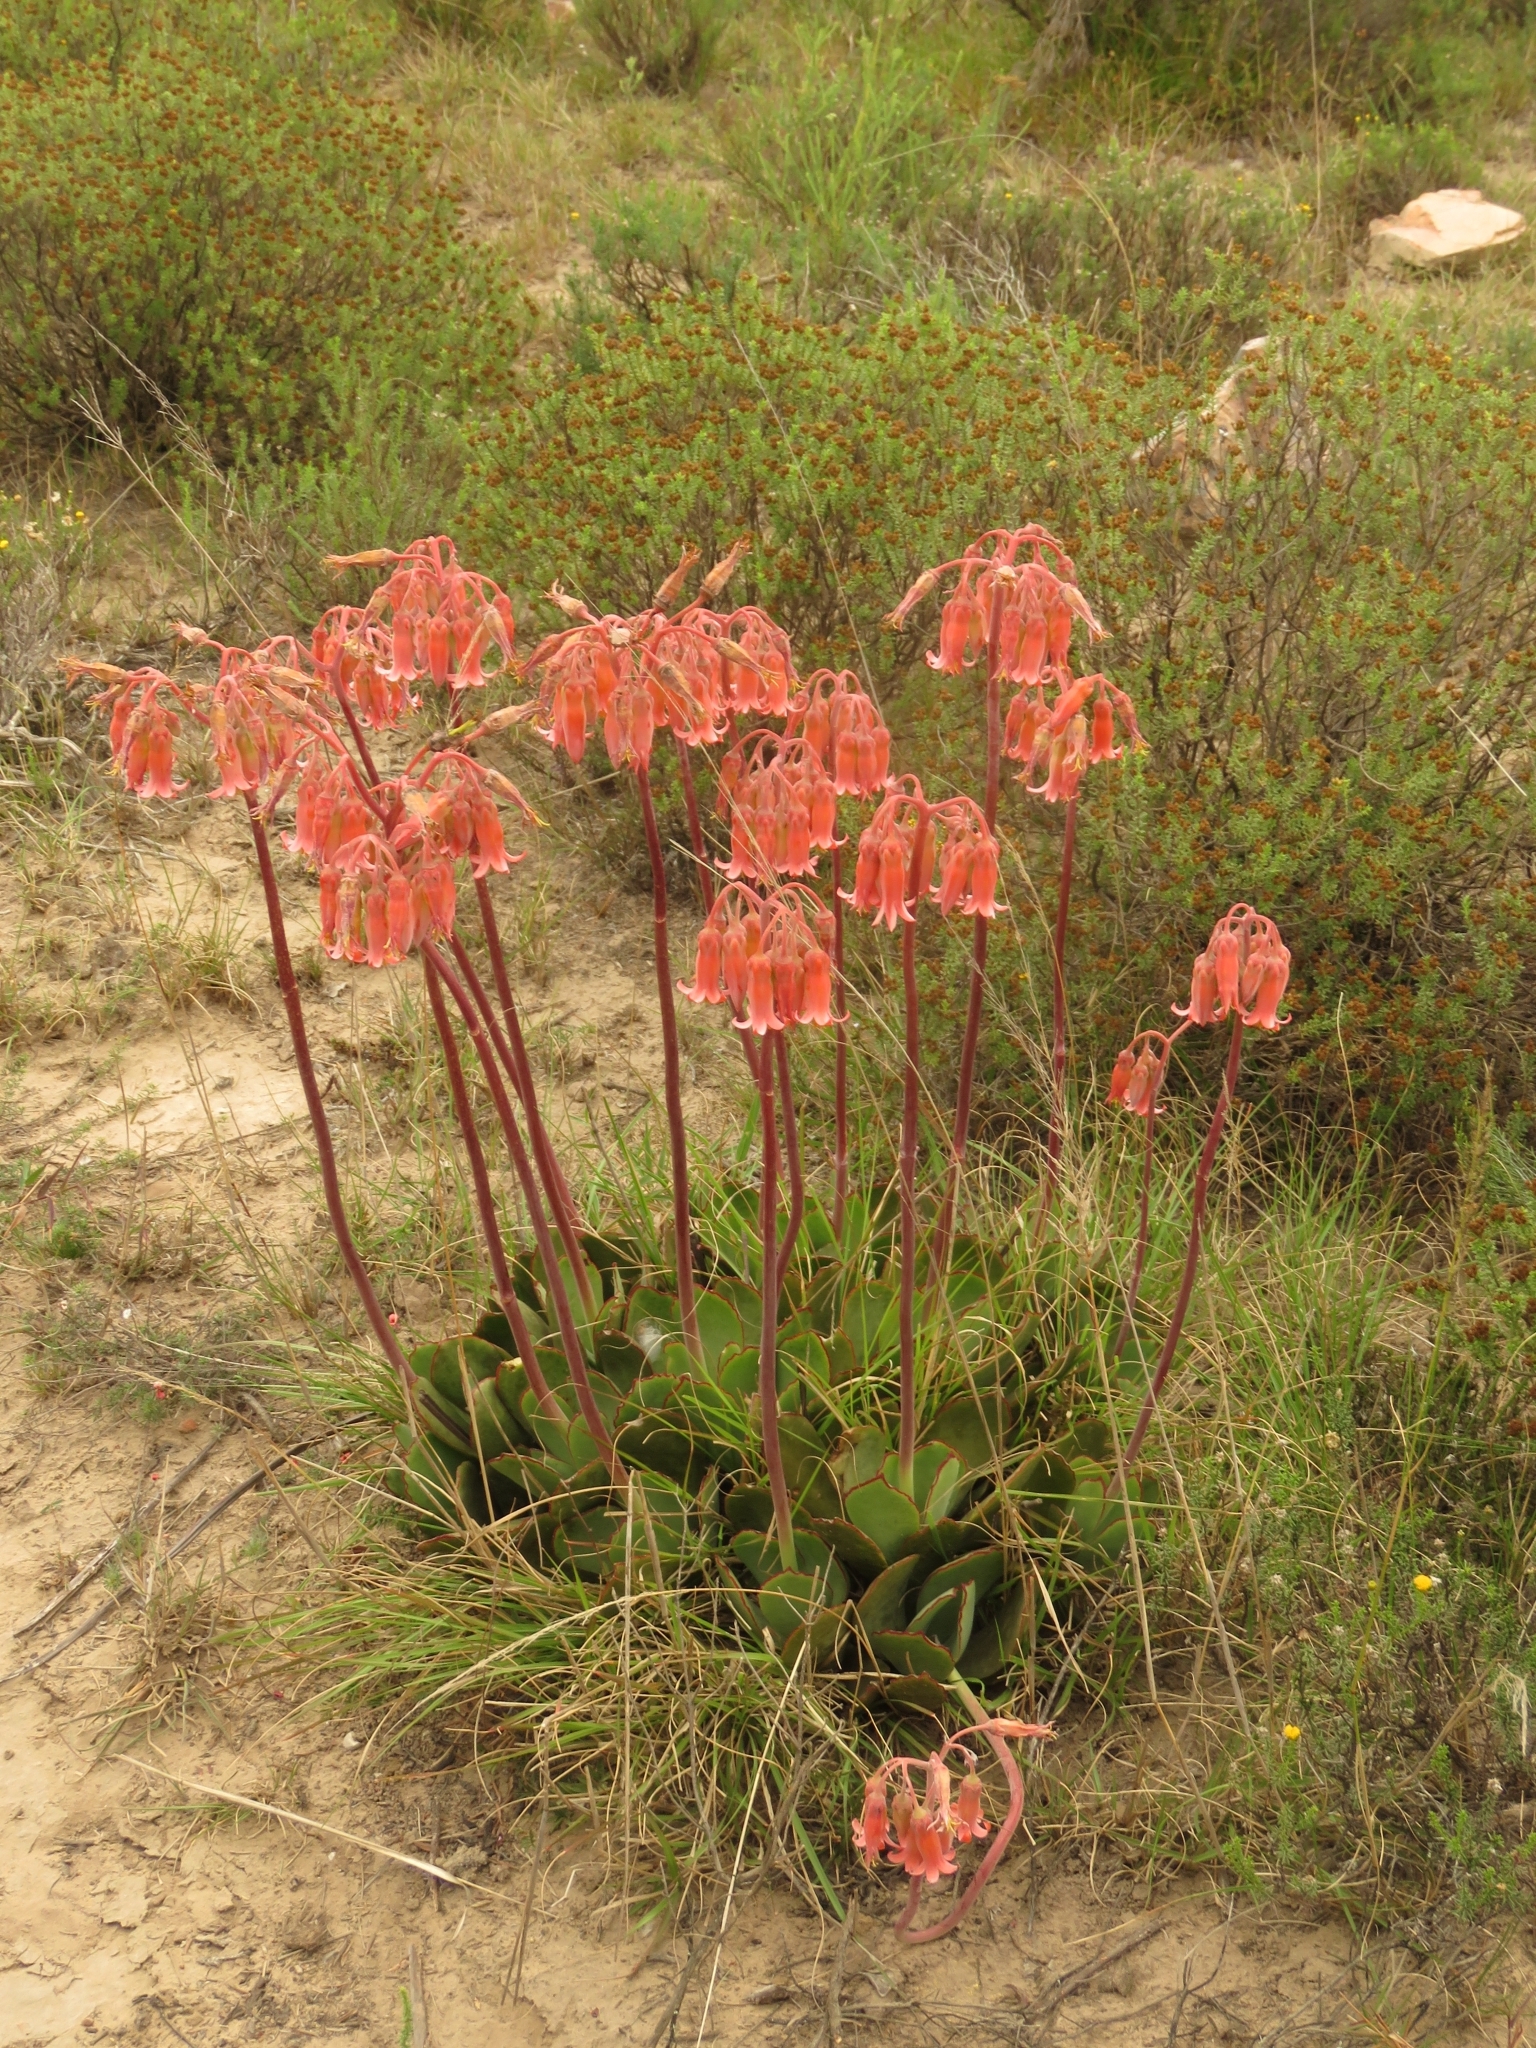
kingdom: Plantae
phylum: Tracheophyta
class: Magnoliopsida
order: Saxifragales
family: Crassulaceae
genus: Cotyledon
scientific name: Cotyledon orbiculata
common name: Pig's ear
